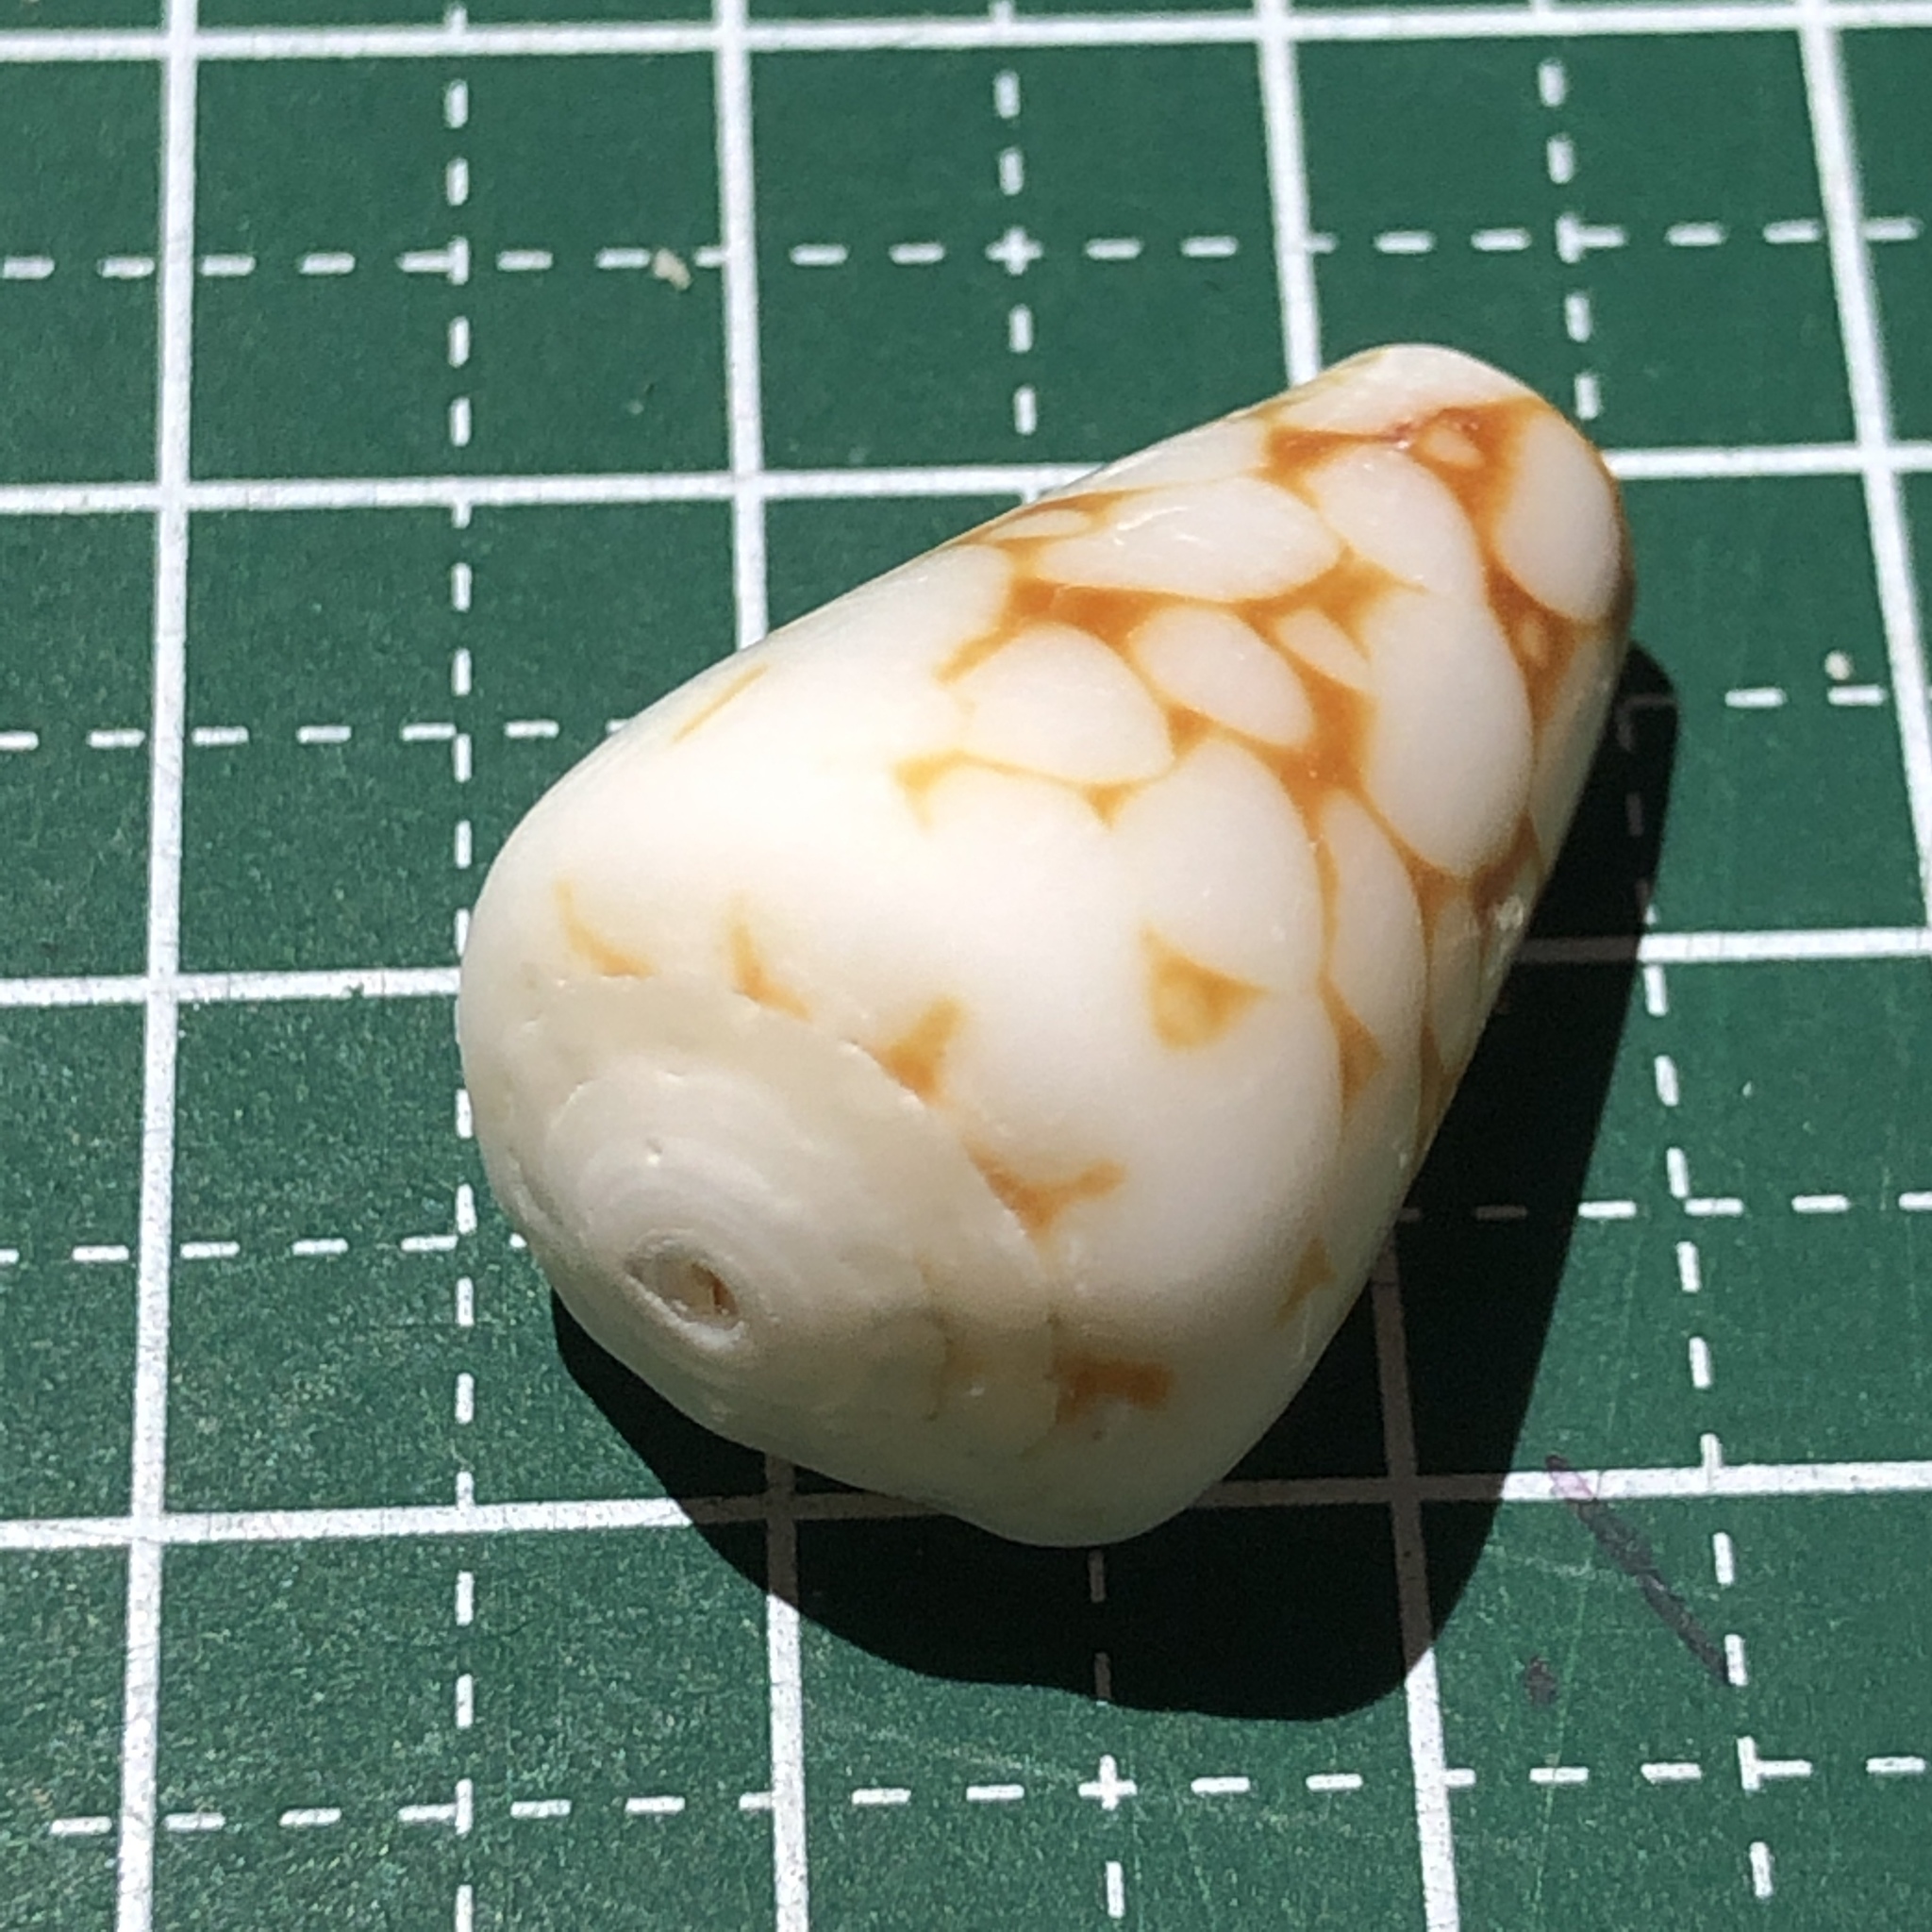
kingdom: Animalia
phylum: Mollusca
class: Gastropoda
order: Neogastropoda
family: Conidae
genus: Conus
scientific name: Conus bandanus
